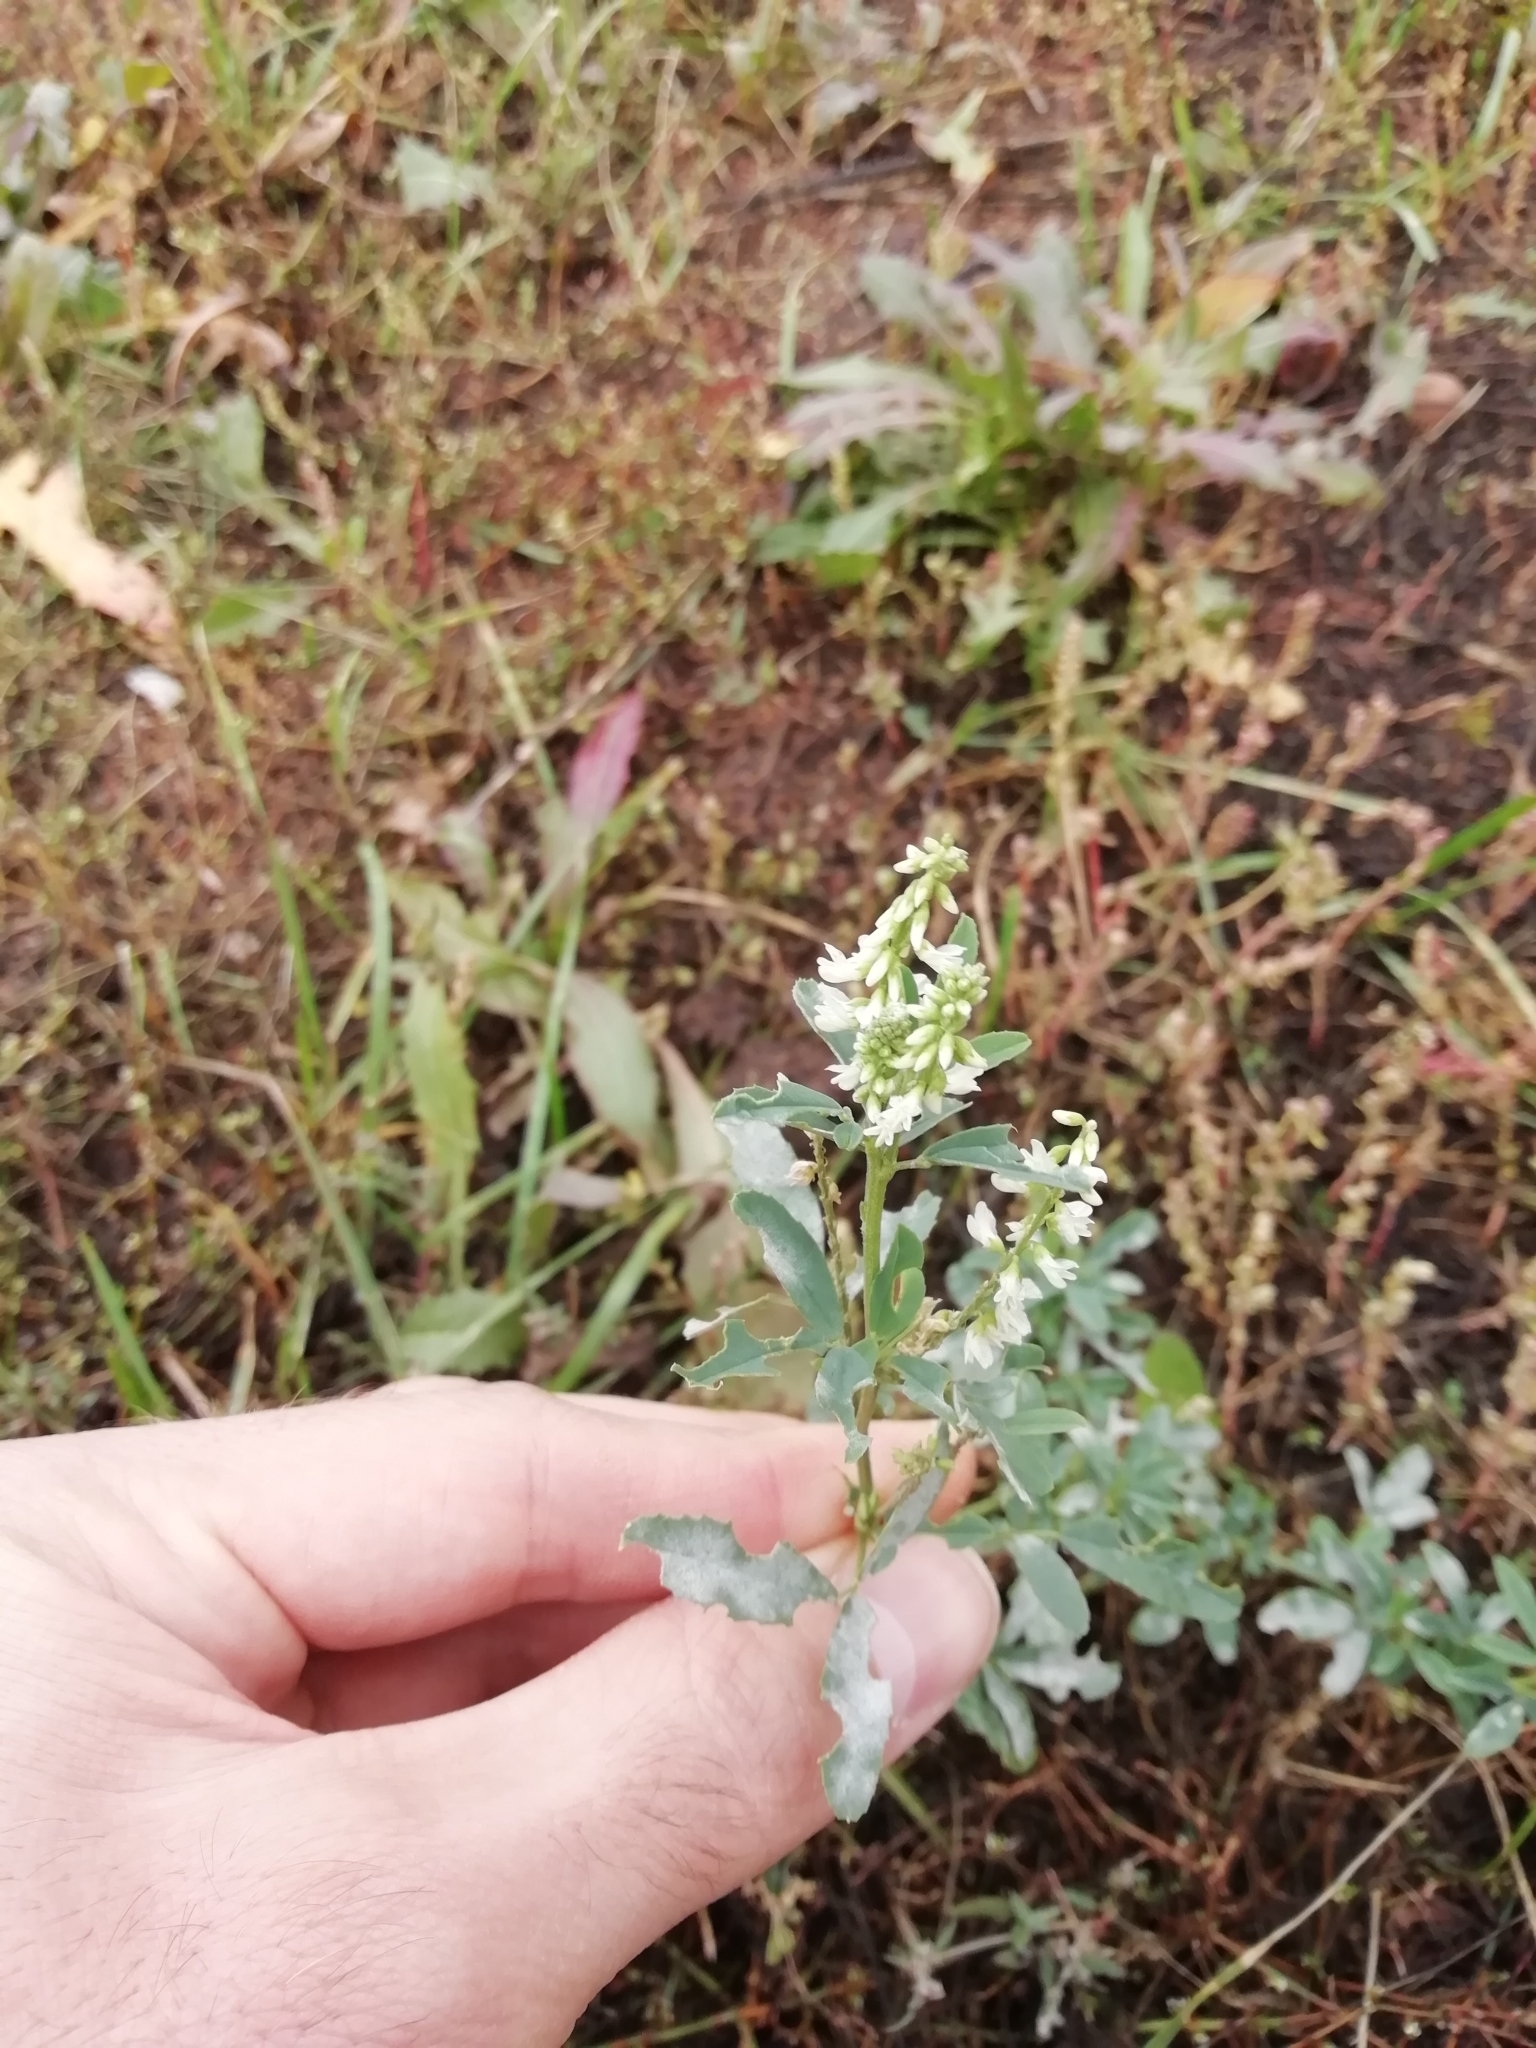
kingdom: Plantae
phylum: Tracheophyta
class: Magnoliopsida
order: Fabales
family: Fabaceae
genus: Melilotus
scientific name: Melilotus albus
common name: White melilot
